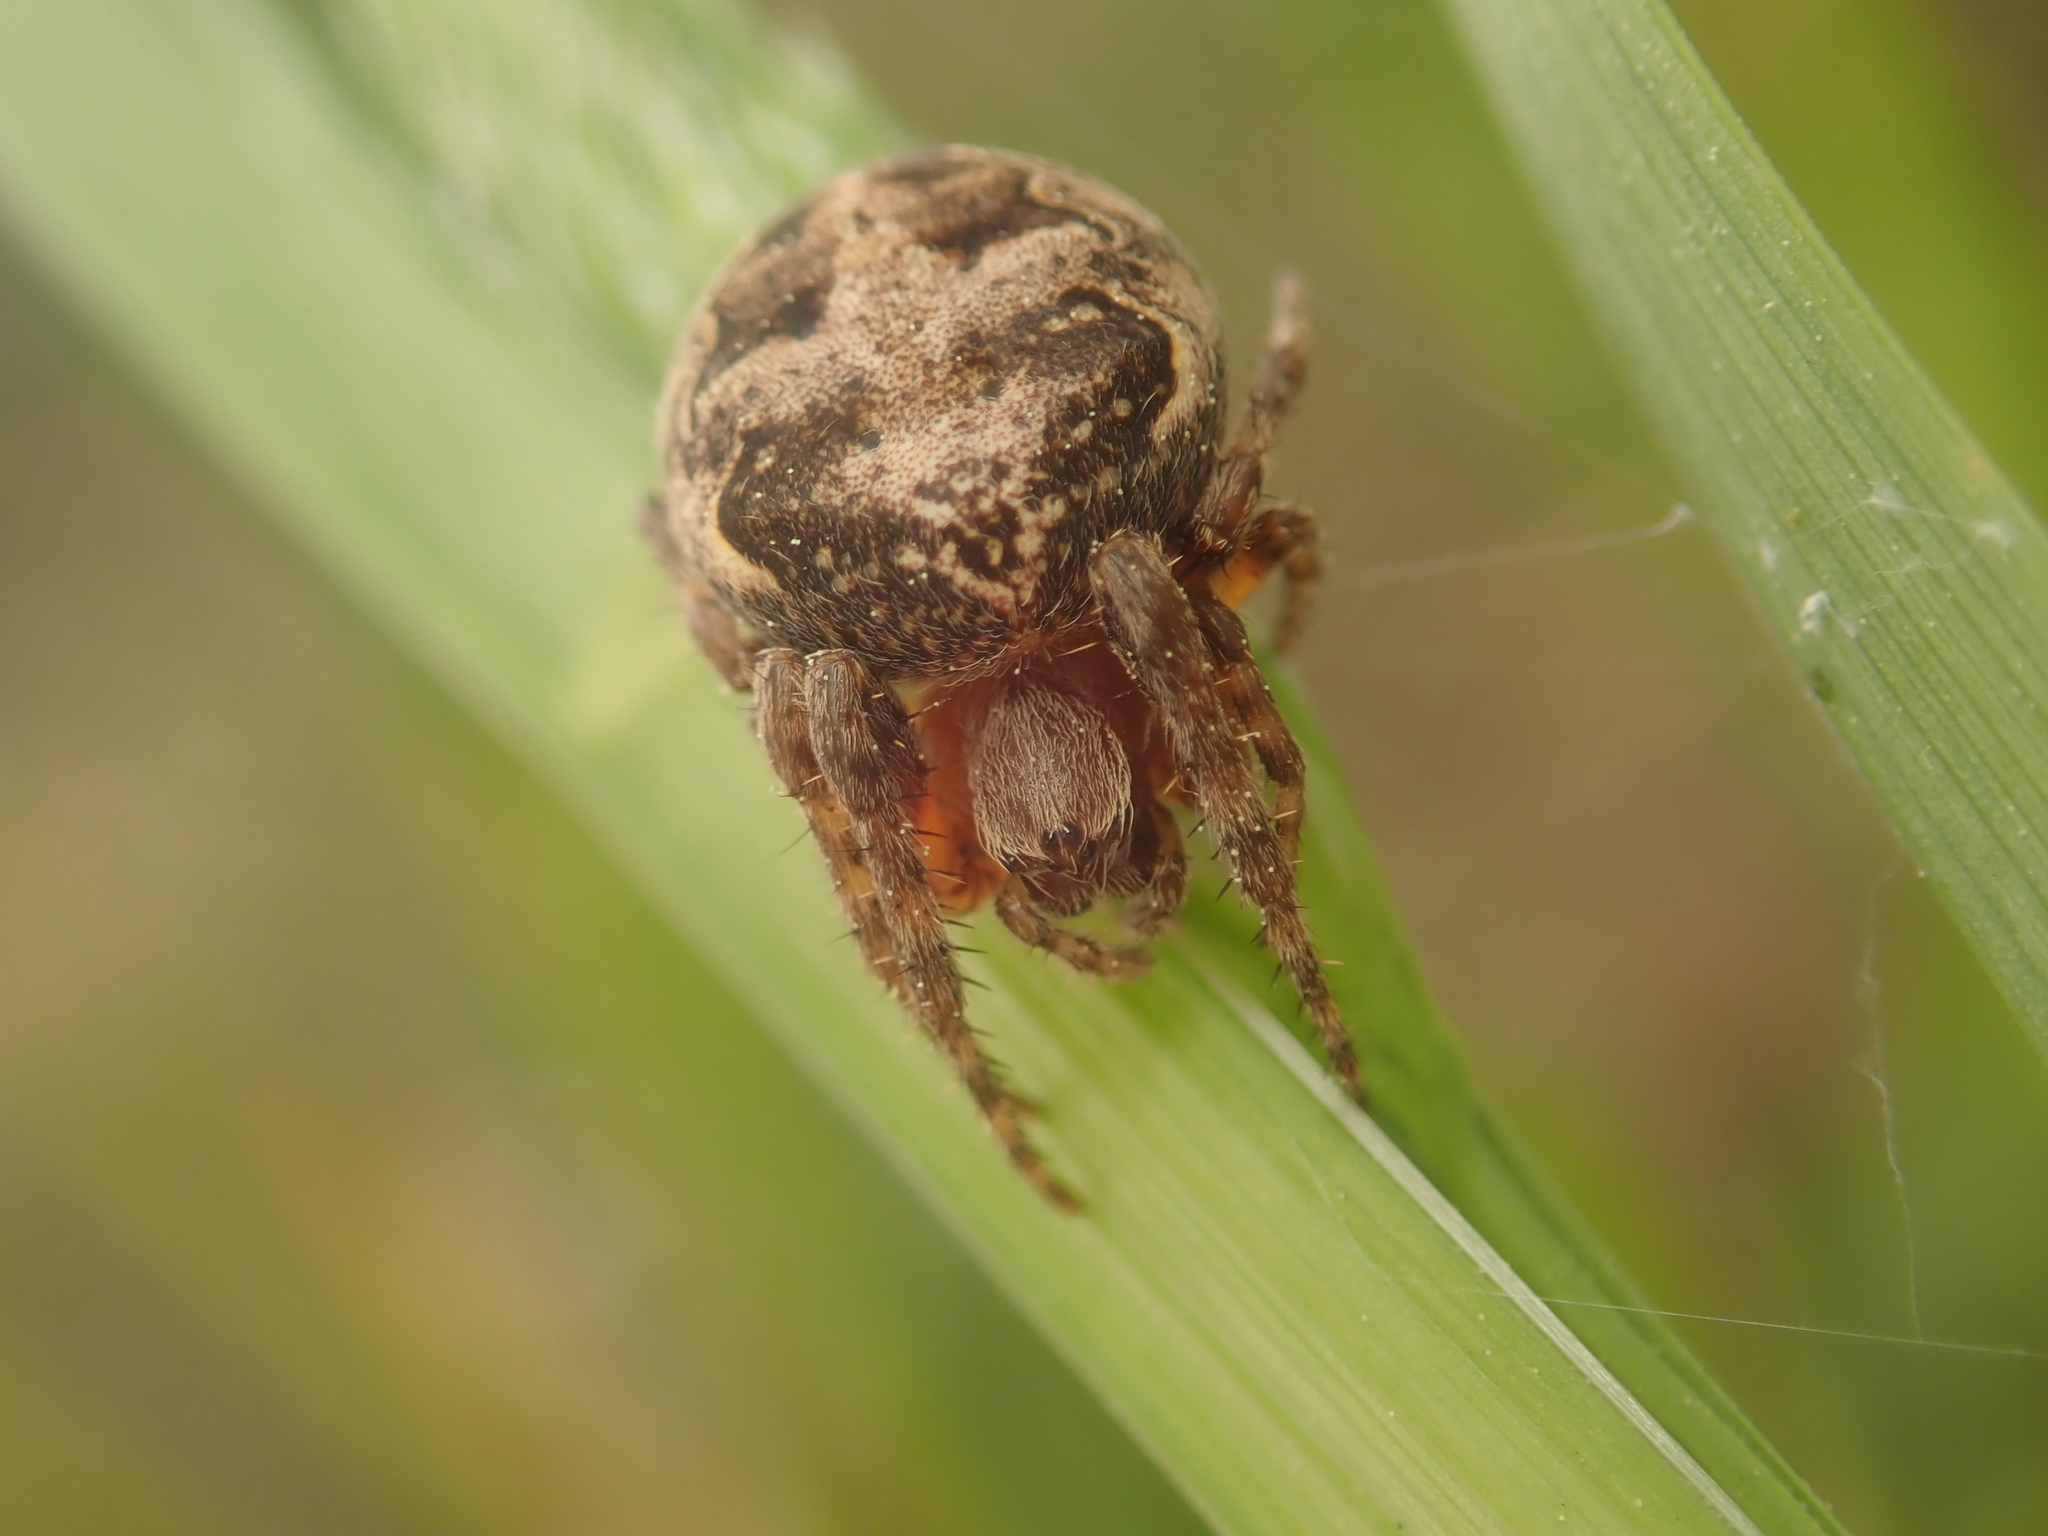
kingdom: Animalia
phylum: Arthropoda
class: Arachnida
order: Araneae
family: Araneidae
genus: Larinioides
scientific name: Larinioides patagiatus
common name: Ornamental orbweaver
